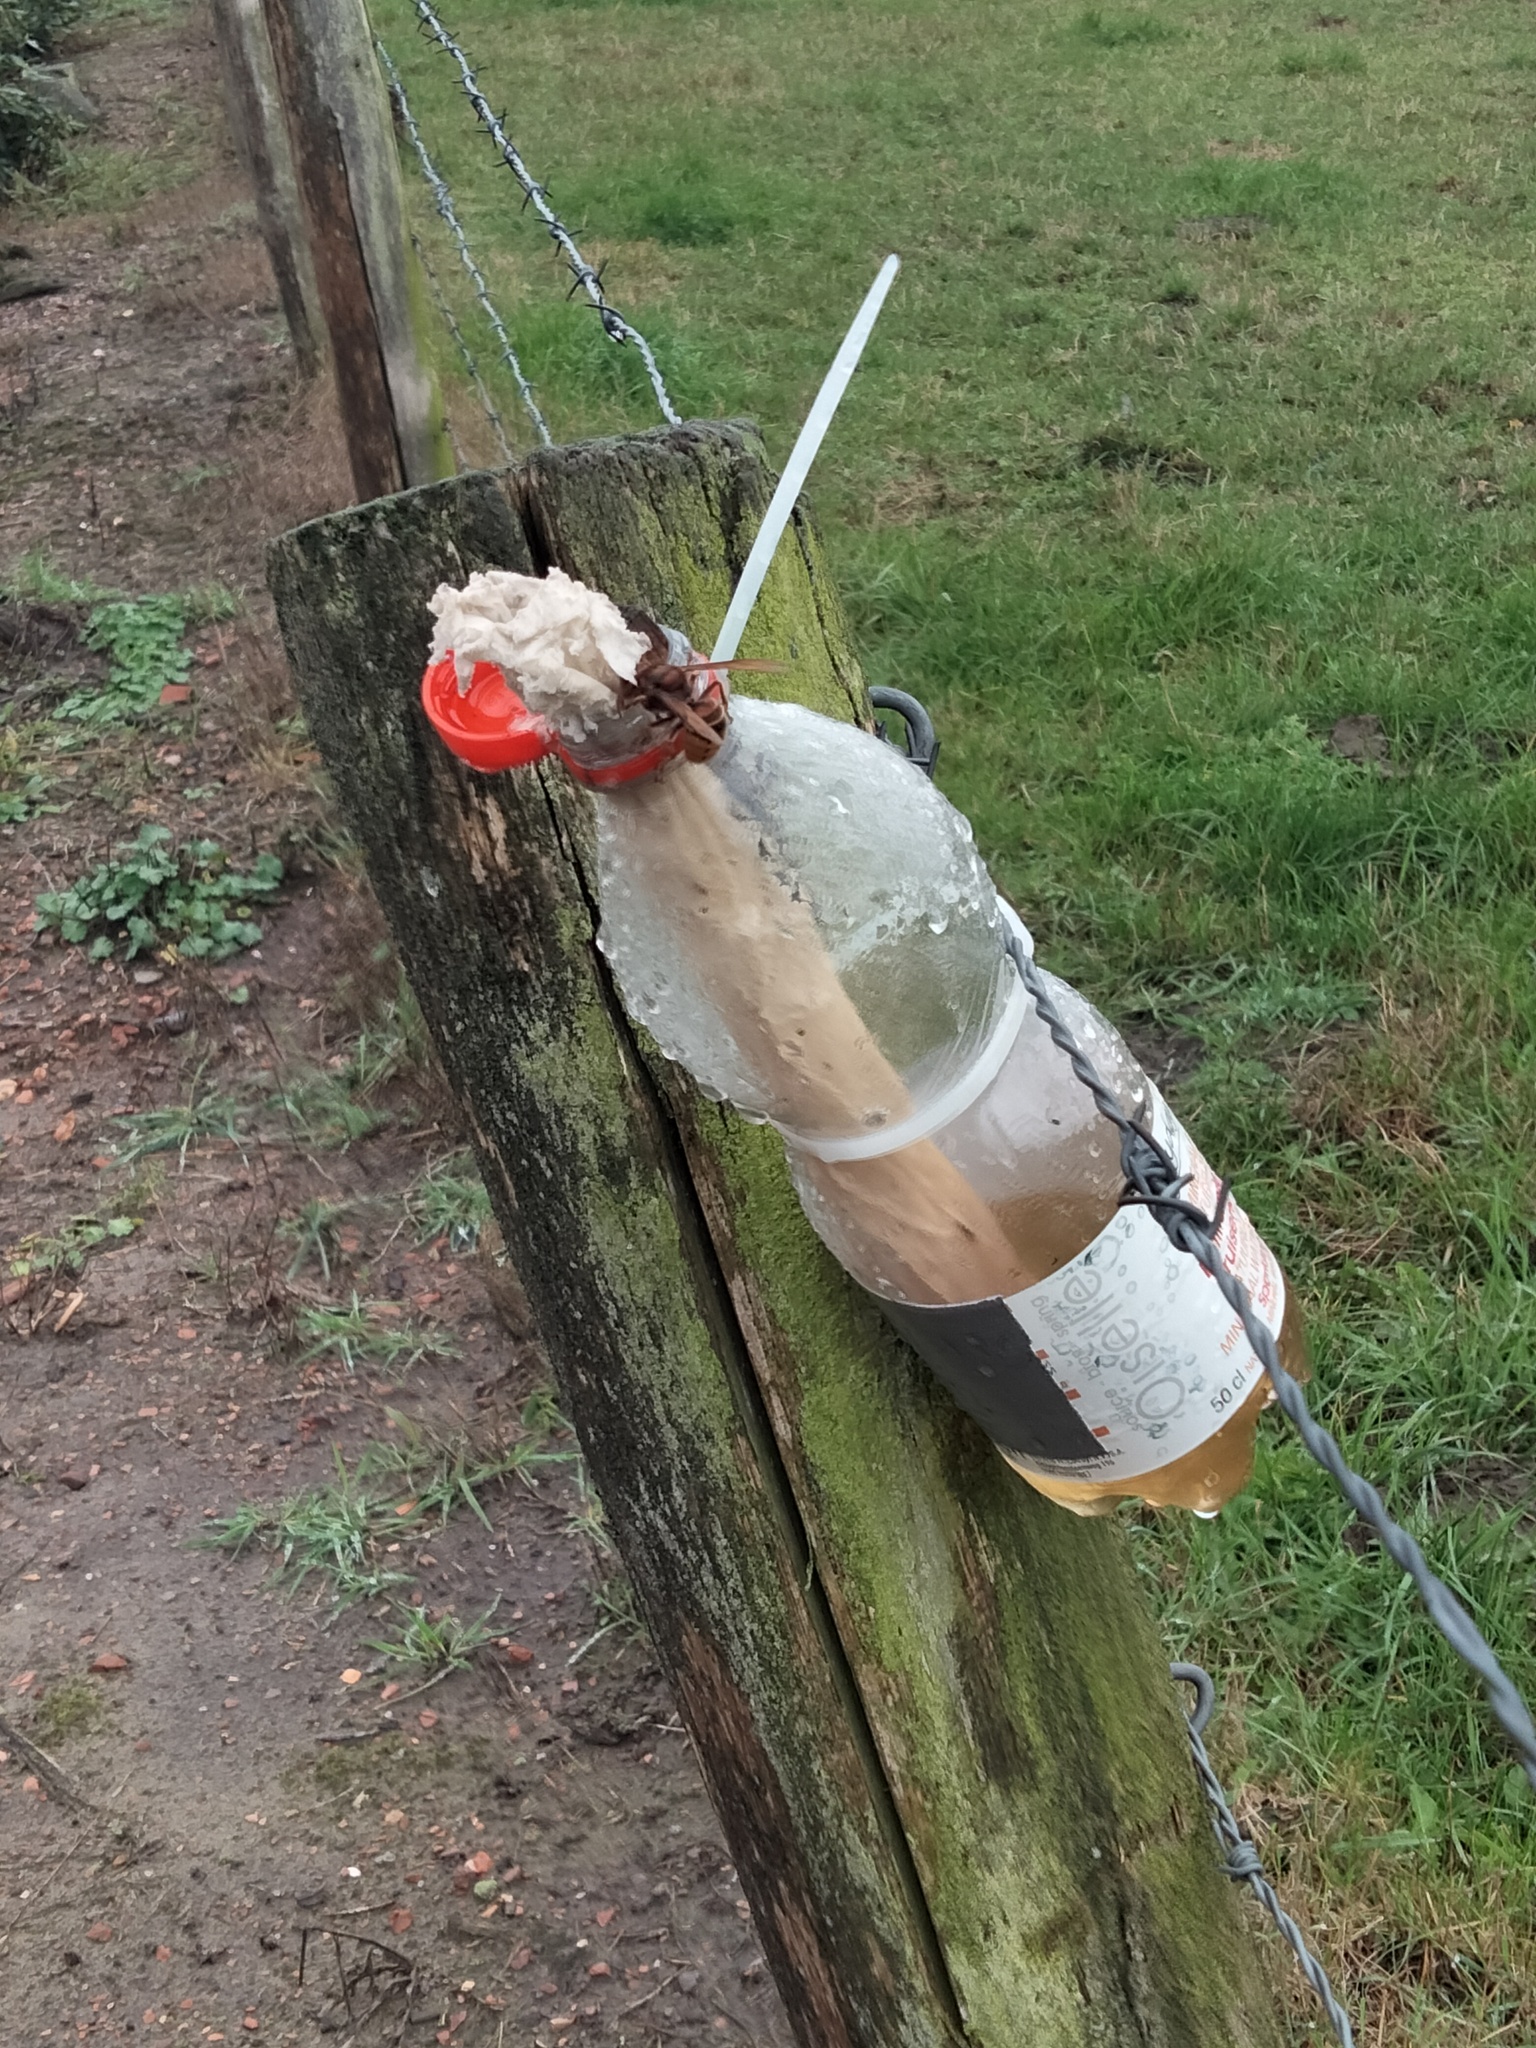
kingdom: Animalia
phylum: Arthropoda
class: Insecta
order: Hymenoptera
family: Vespidae
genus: Vespa
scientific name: Vespa crabro
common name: Hornet
